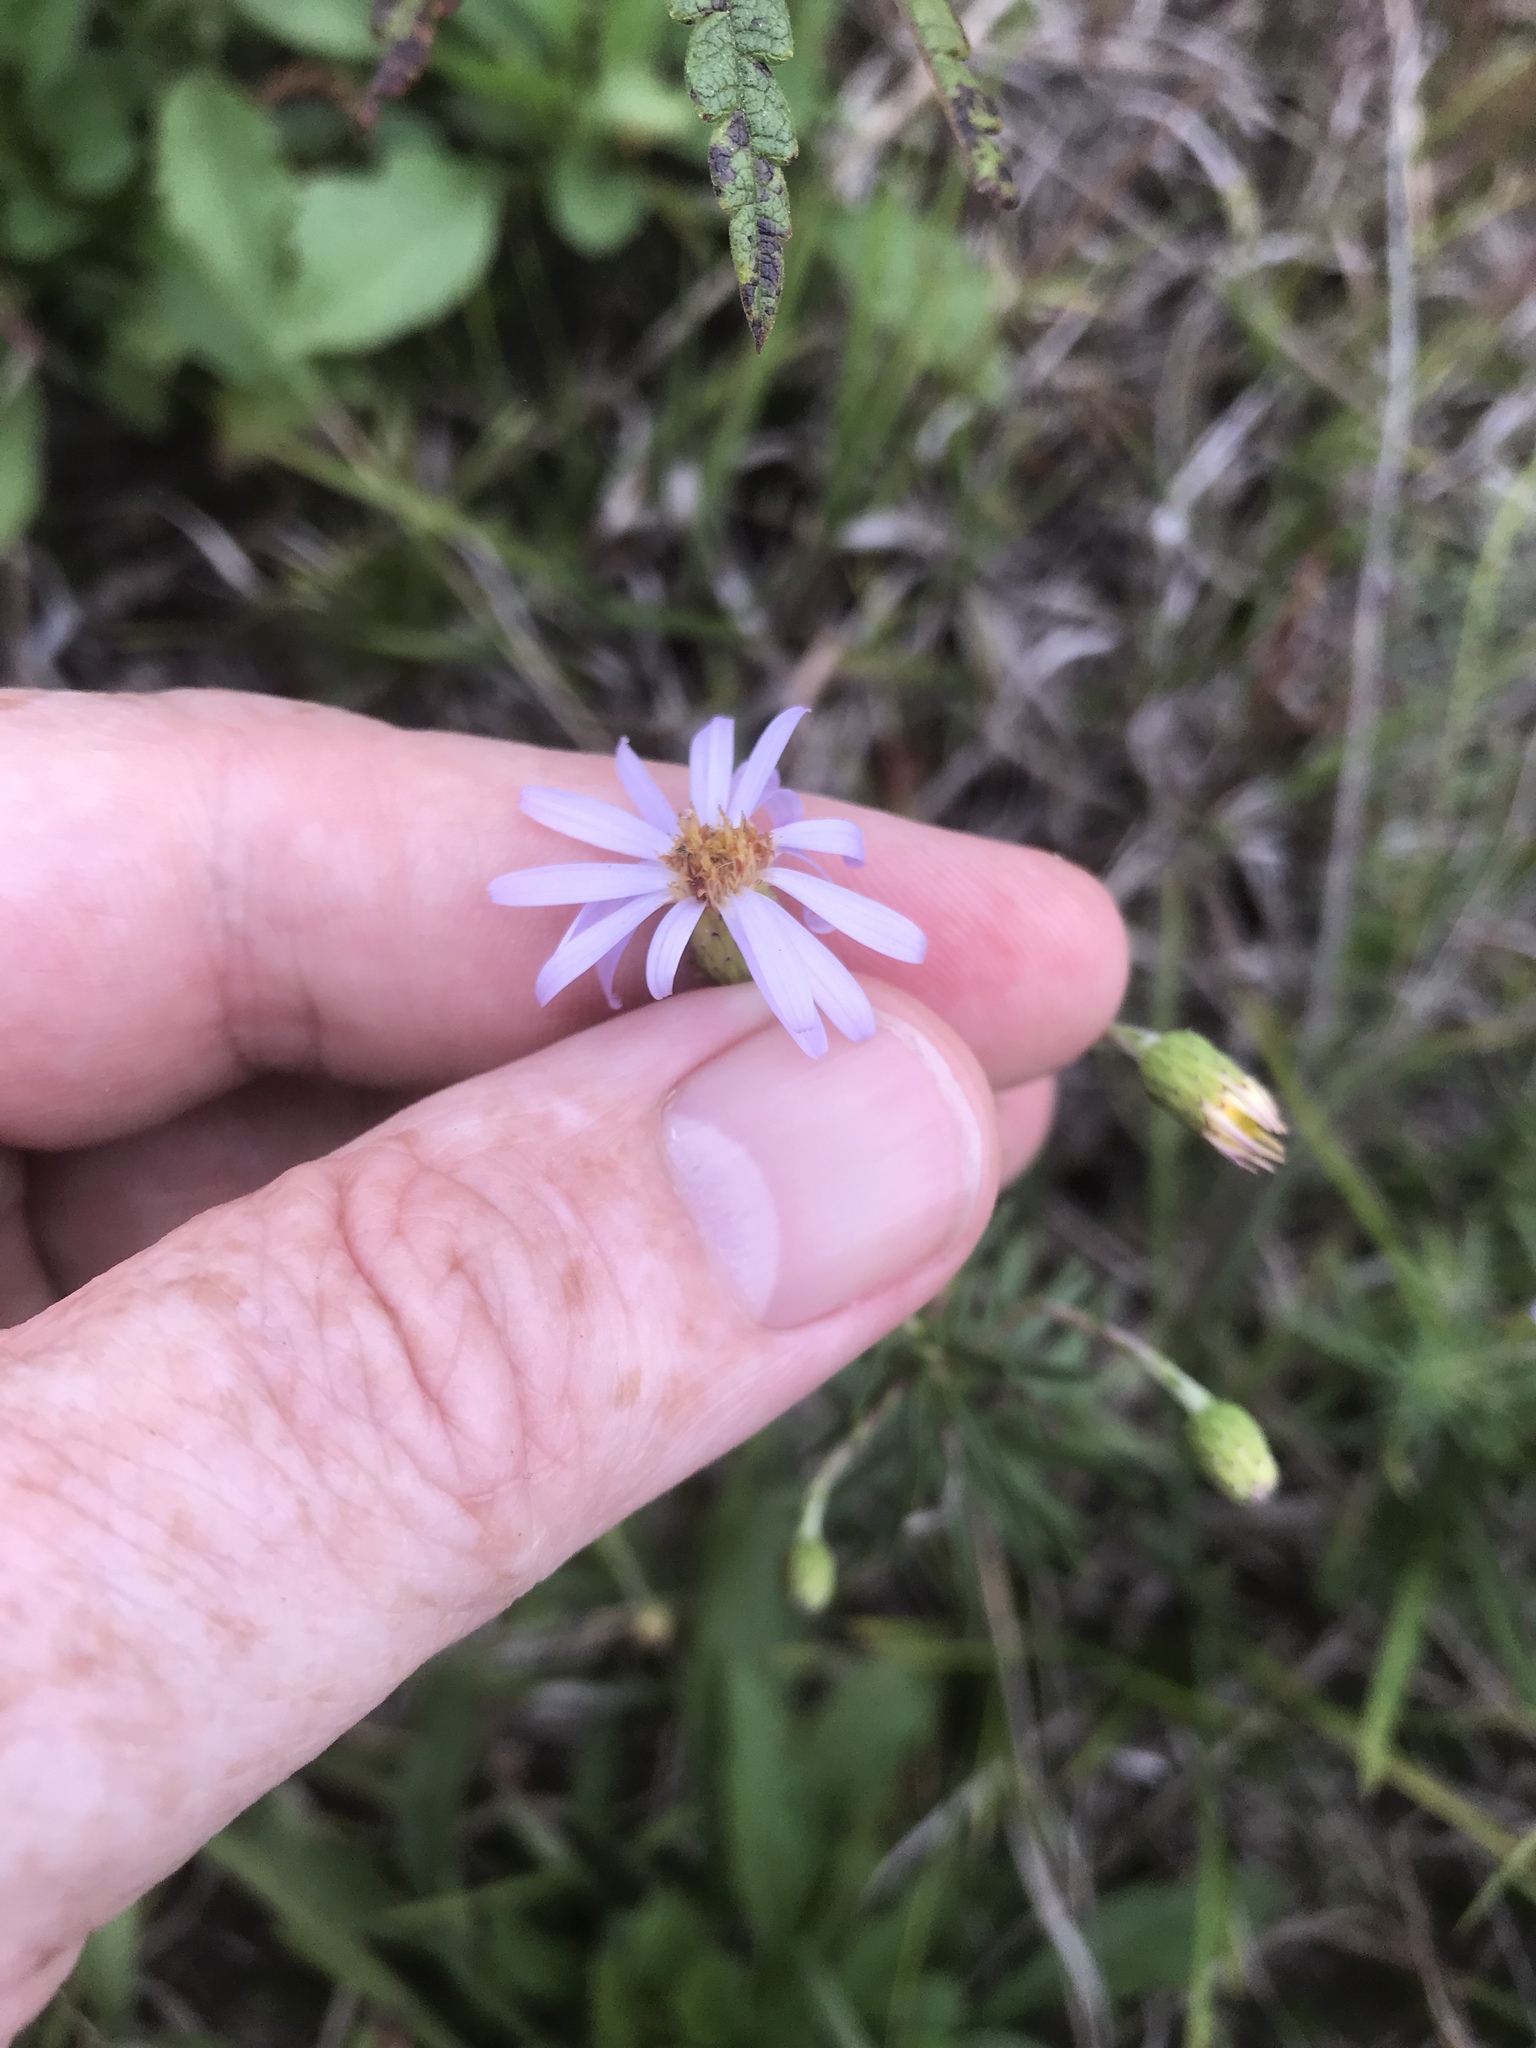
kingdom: Plantae
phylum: Tracheophyta
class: Magnoliopsida
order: Asterales
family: Asteraceae
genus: Ionactis
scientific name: Ionactis linariifolia
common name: Flax-leaf aster
